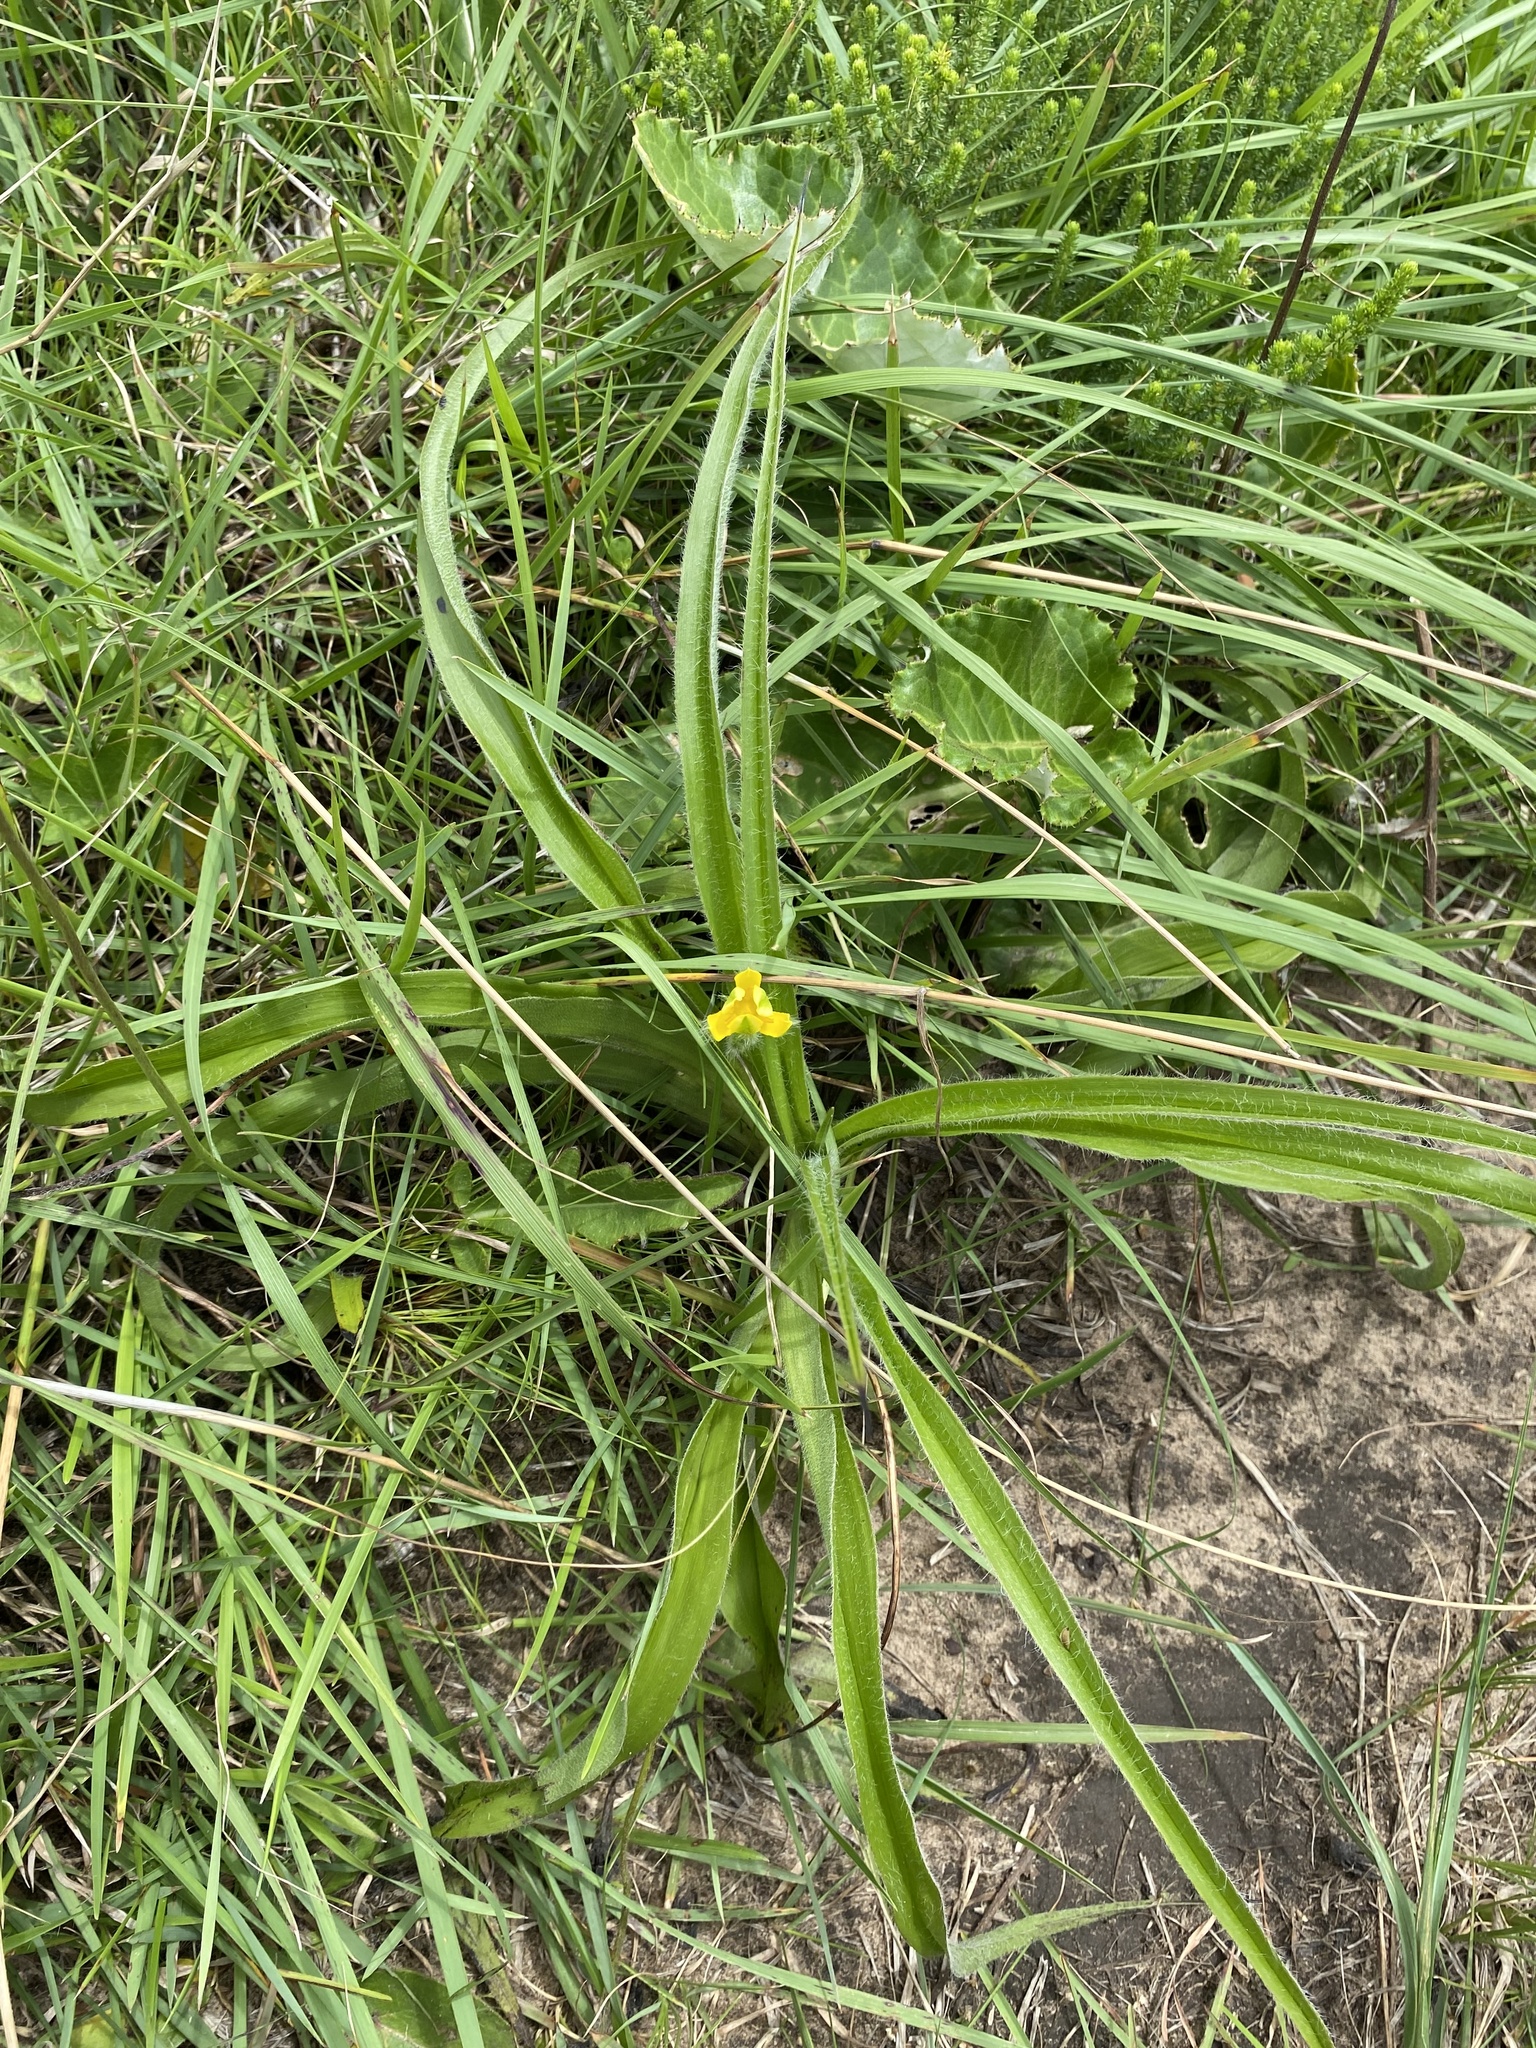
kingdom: Plantae
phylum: Tracheophyta
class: Liliopsida
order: Asparagales
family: Hypoxidaceae
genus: Hypoxis
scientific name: Hypoxis hemerocallidea
